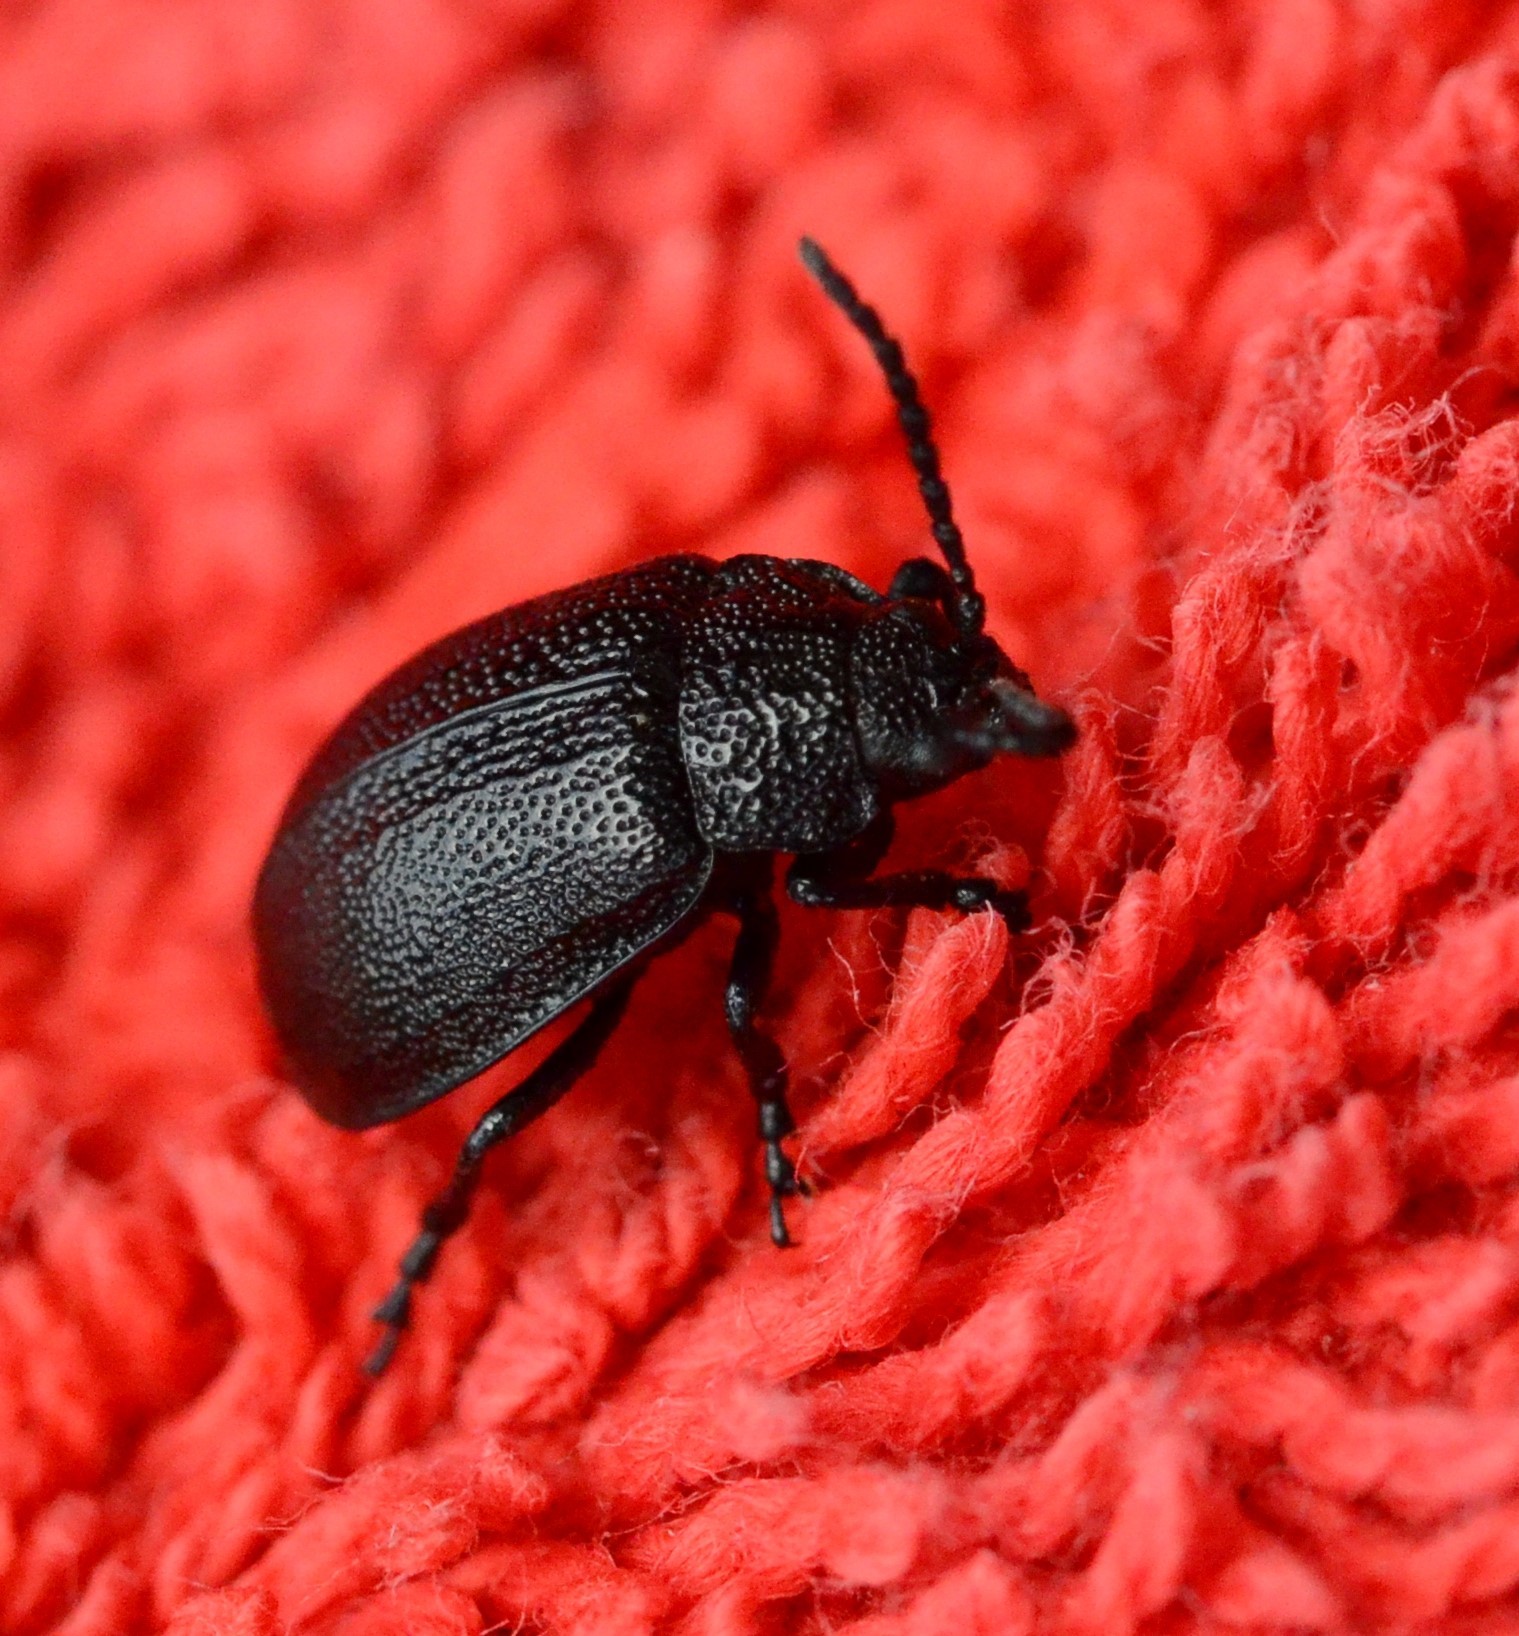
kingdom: Animalia
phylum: Arthropoda
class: Insecta
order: Coleoptera
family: Chrysomelidae
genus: Galeruca
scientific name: Galeruca tanaceti
